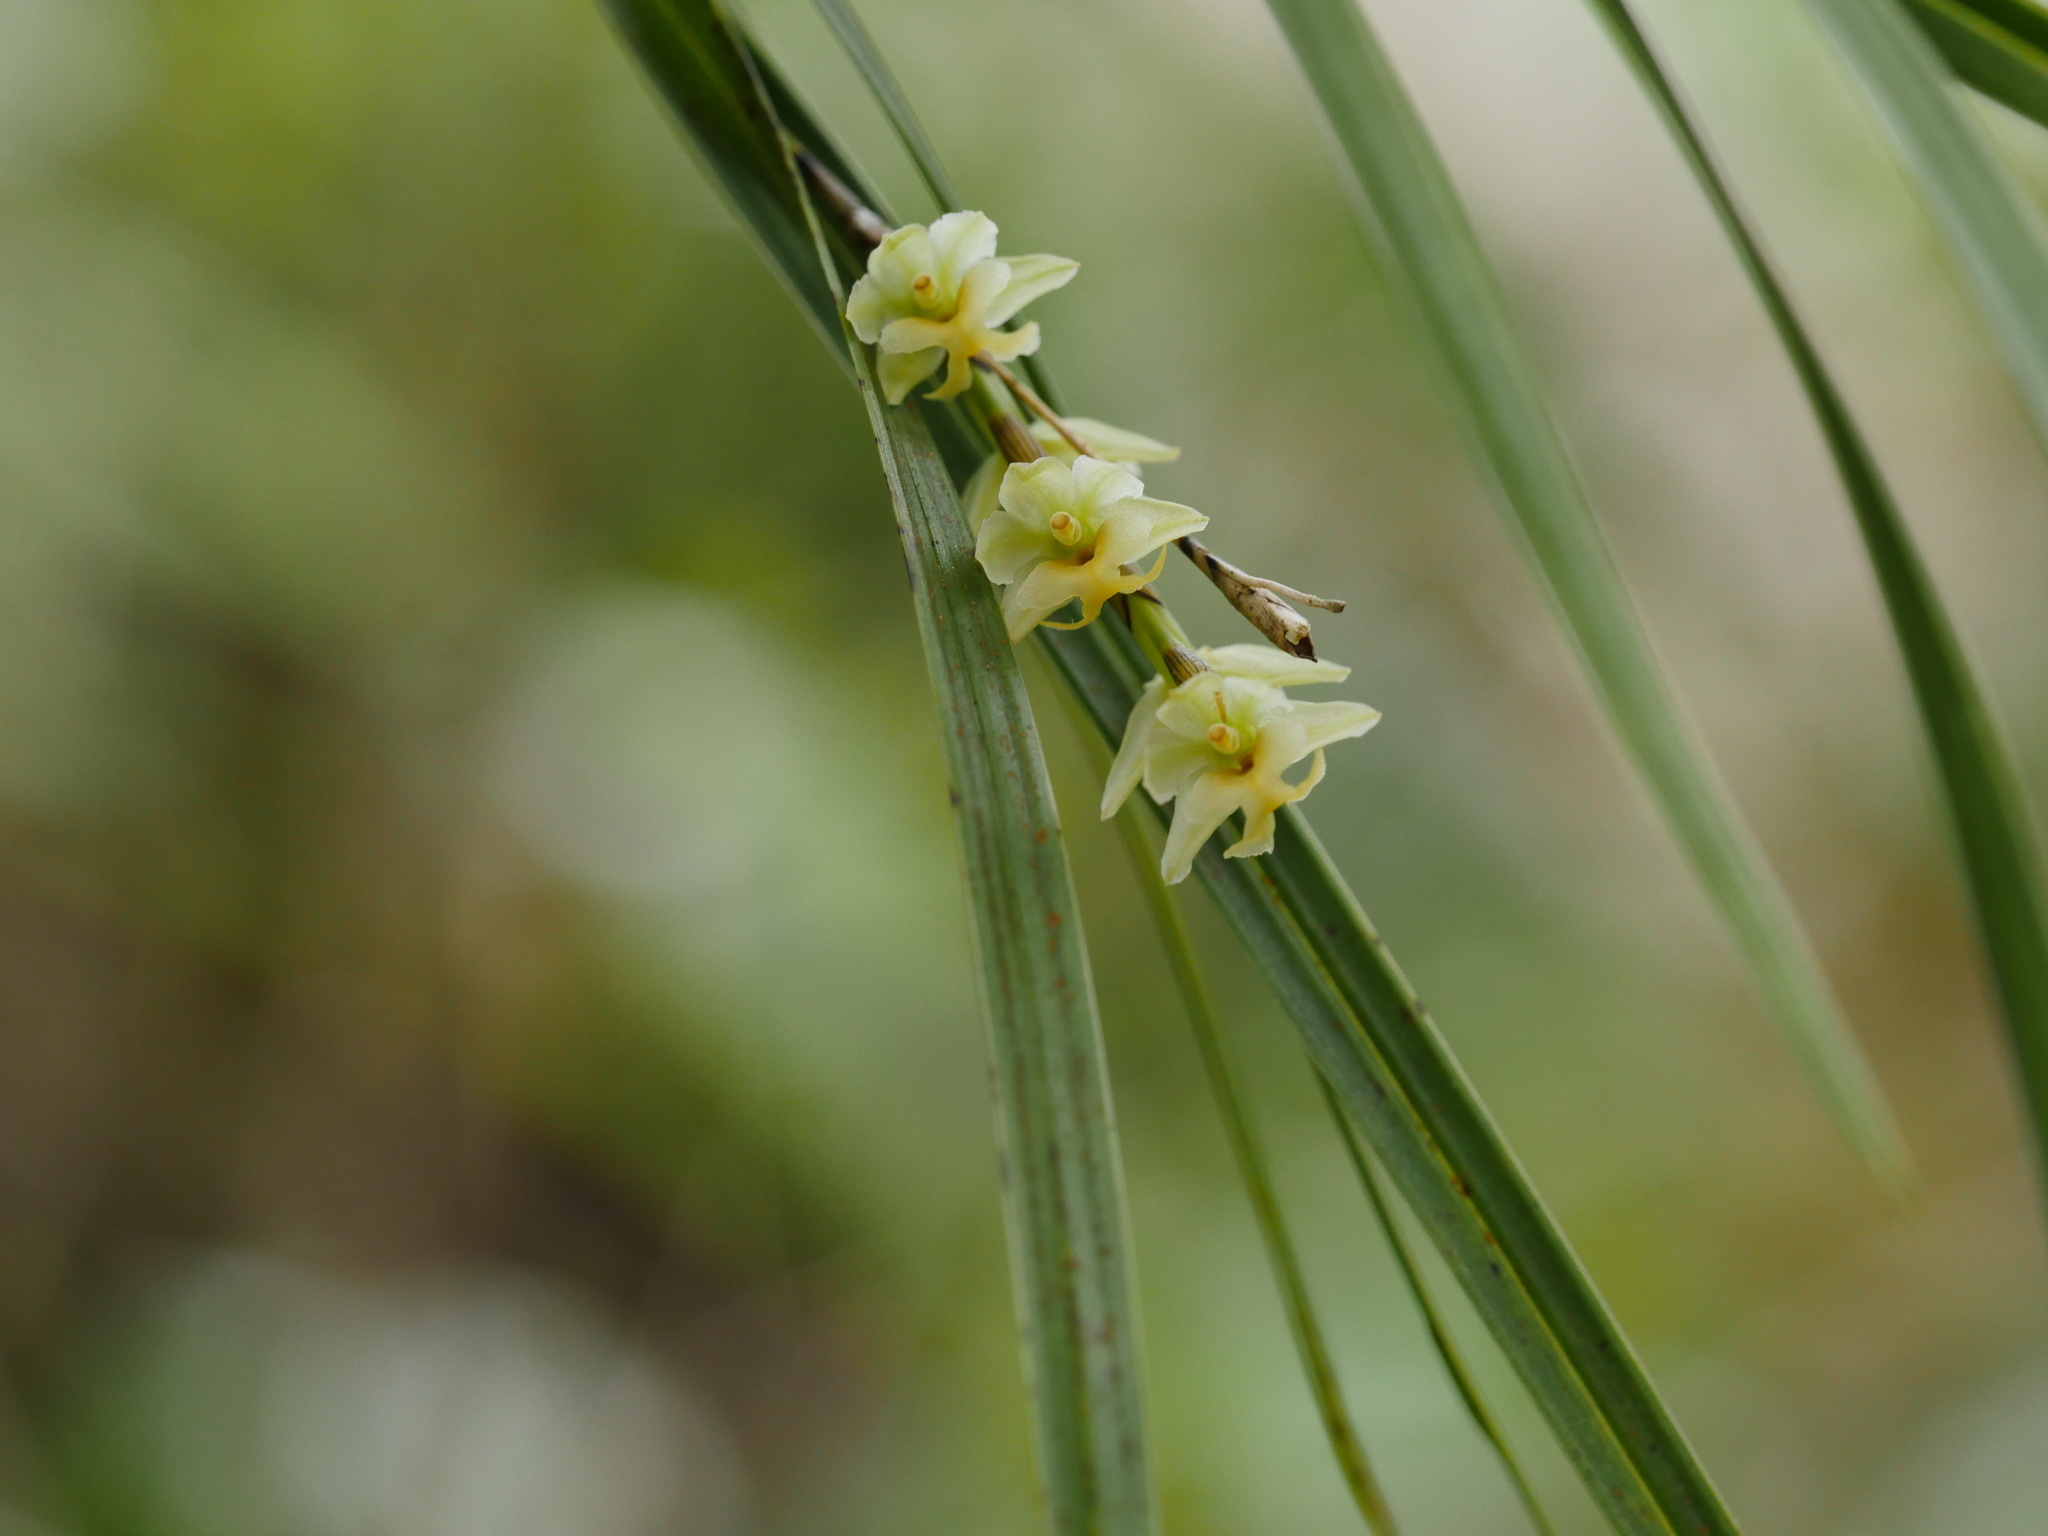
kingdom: Plantae
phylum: Tracheophyta
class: Liliopsida
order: Asparagales
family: Orchidaceae
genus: Earina
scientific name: Earina mucronata
